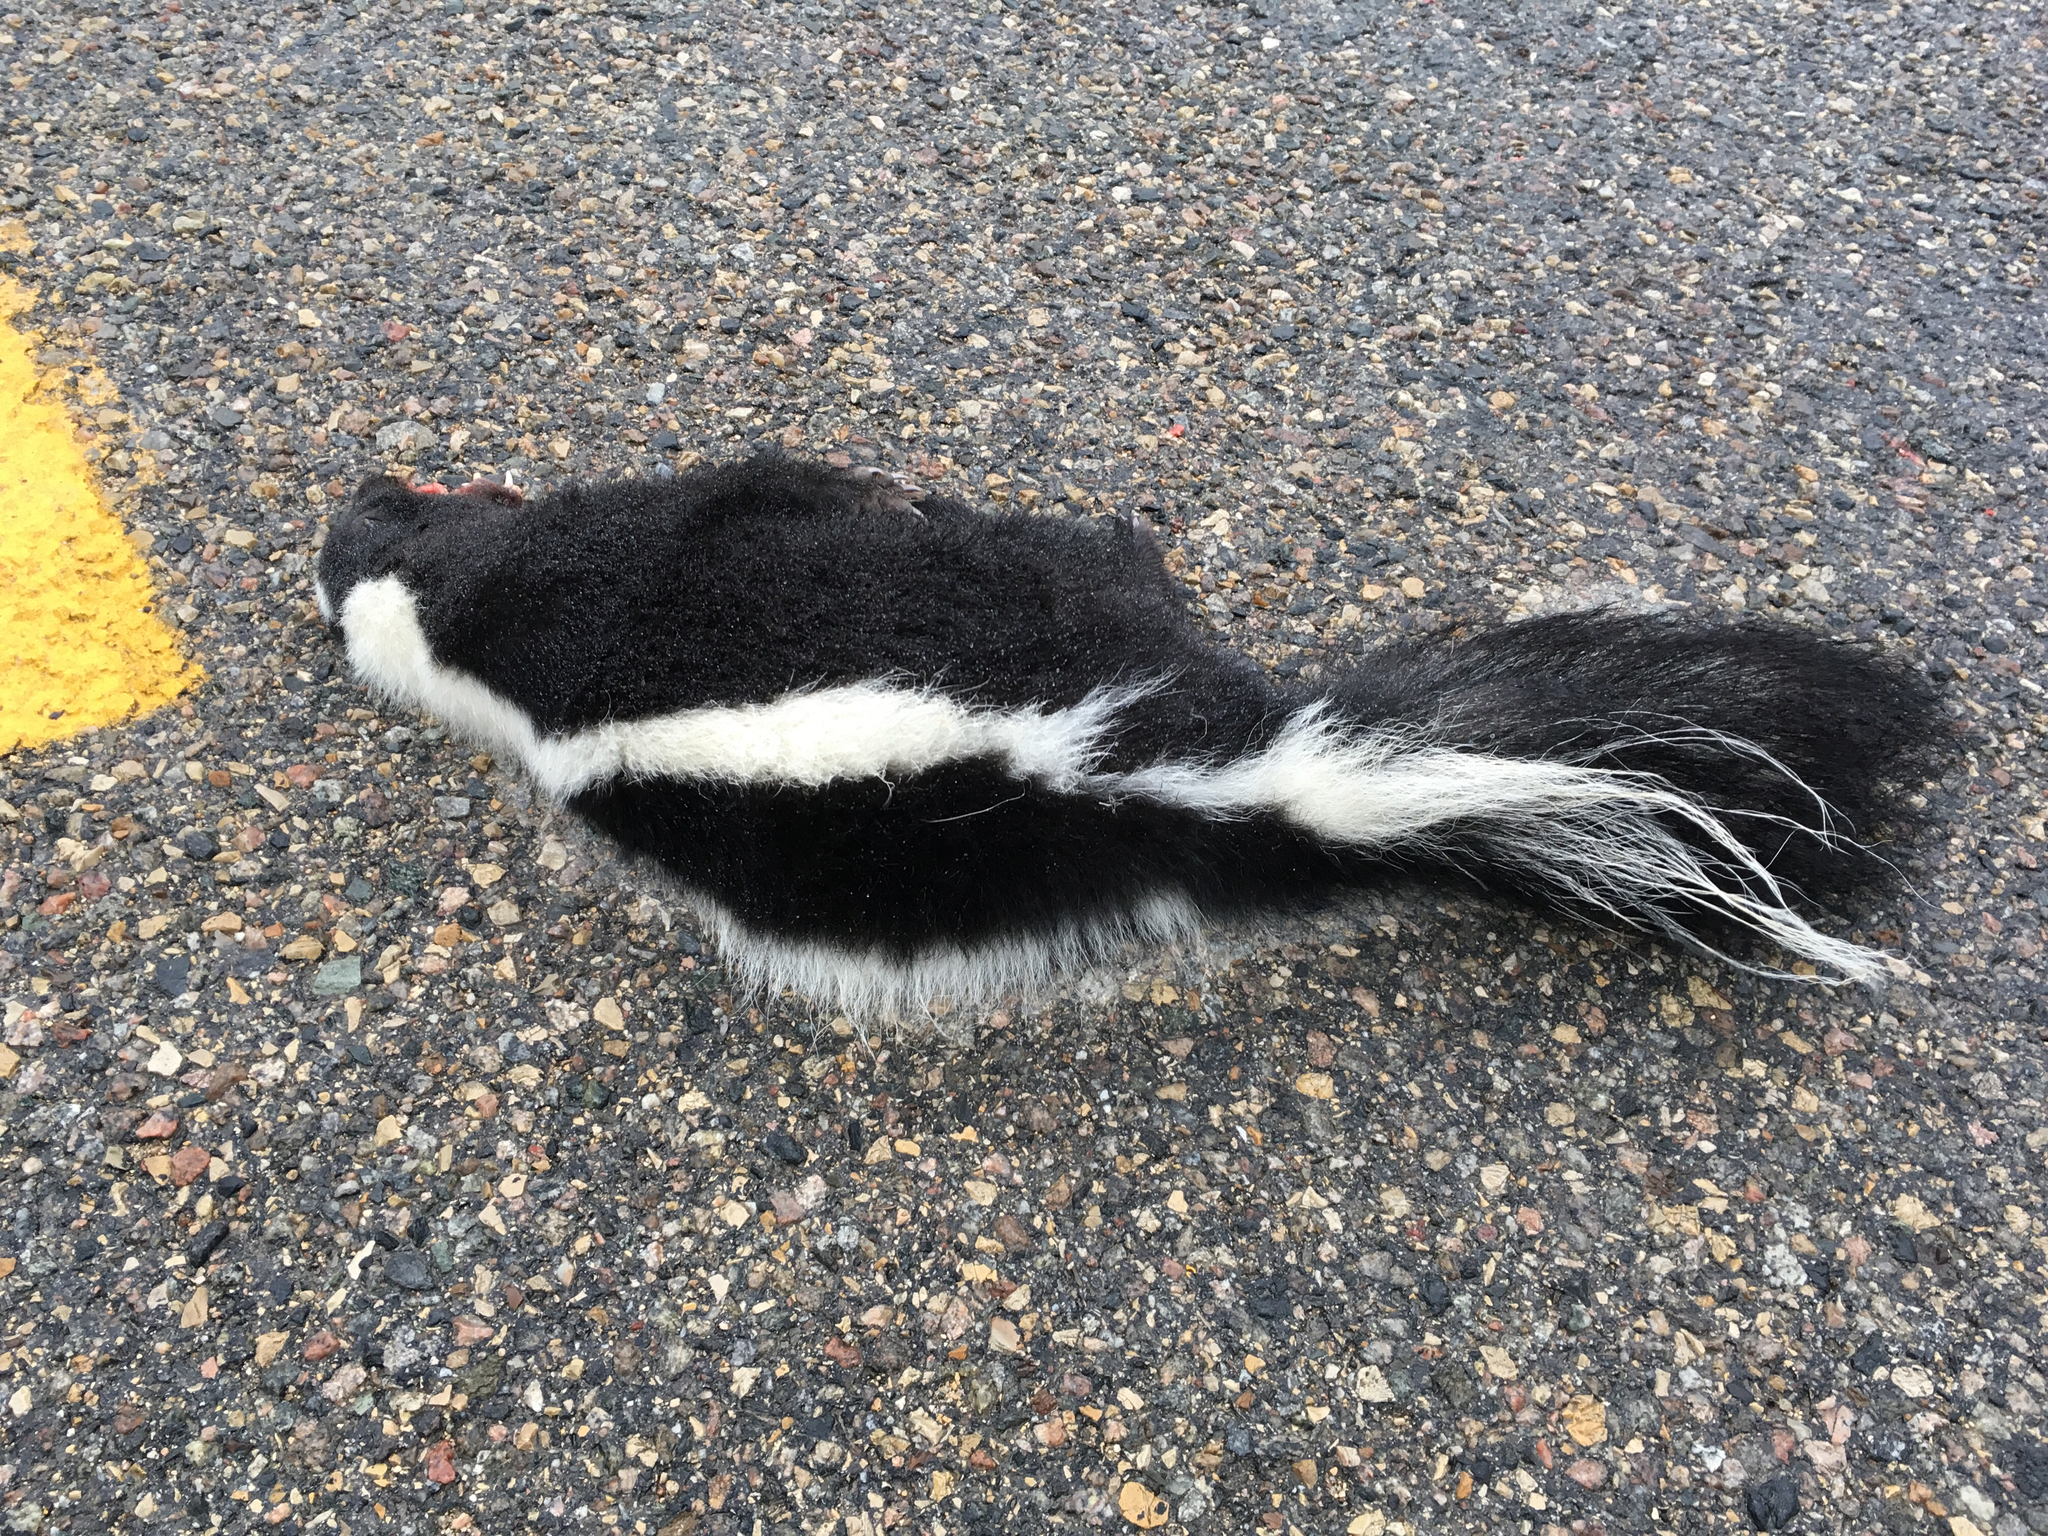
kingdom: Animalia
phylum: Chordata
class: Mammalia
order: Carnivora
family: Mephitidae
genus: Mephitis
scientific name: Mephitis mephitis
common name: Striped skunk
